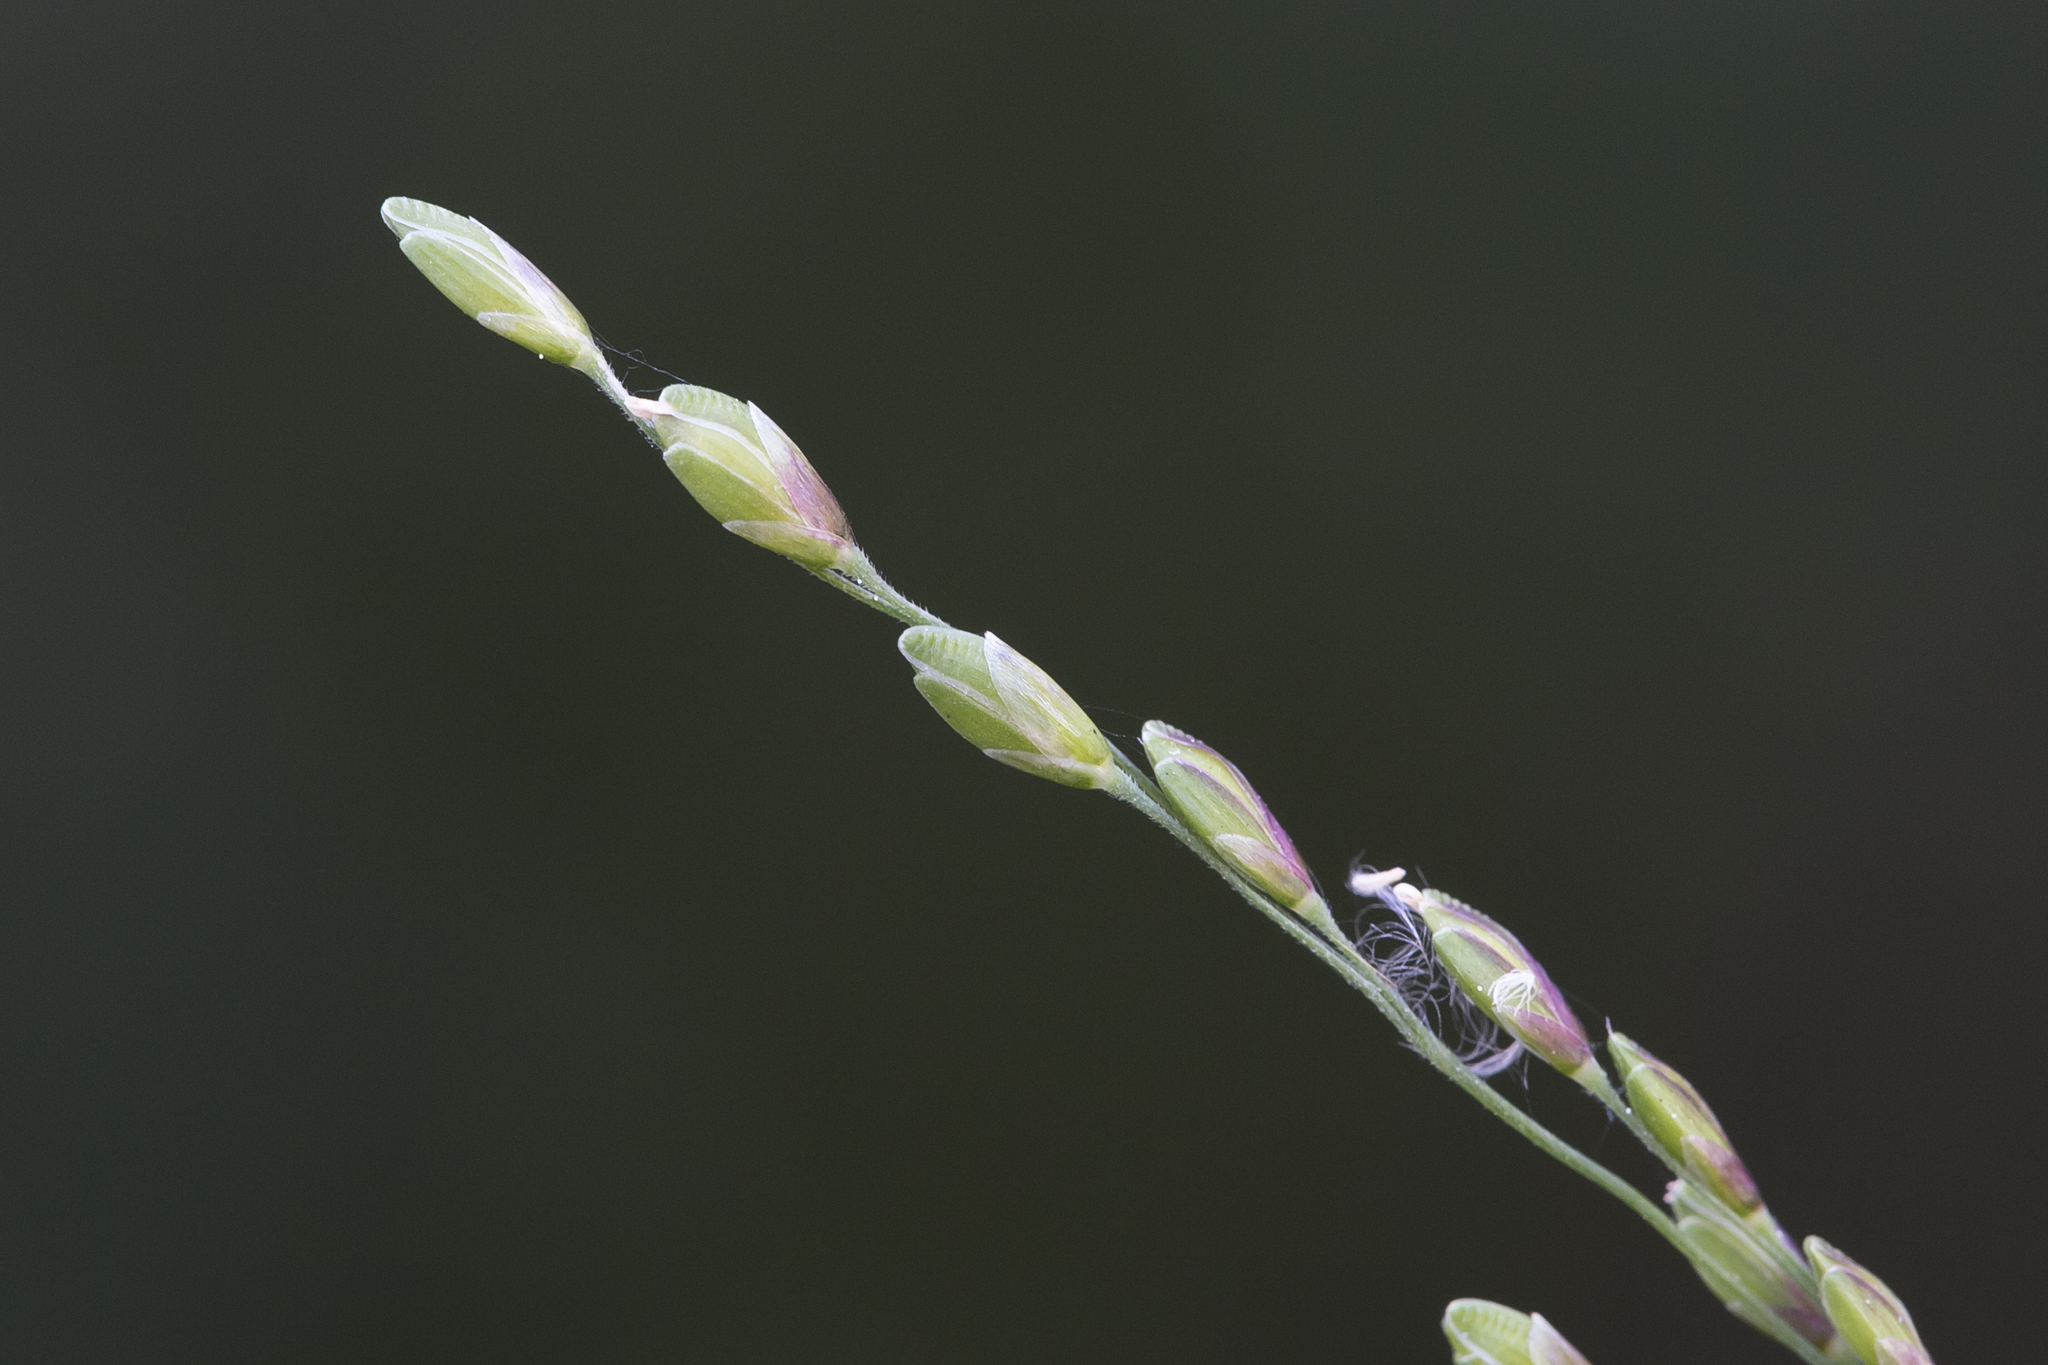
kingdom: Plantae
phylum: Tracheophyta
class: Liliopsida
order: Poales
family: Poaceae
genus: Ehrharta
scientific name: Ehrharta erecta
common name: Panic veldtgrass
